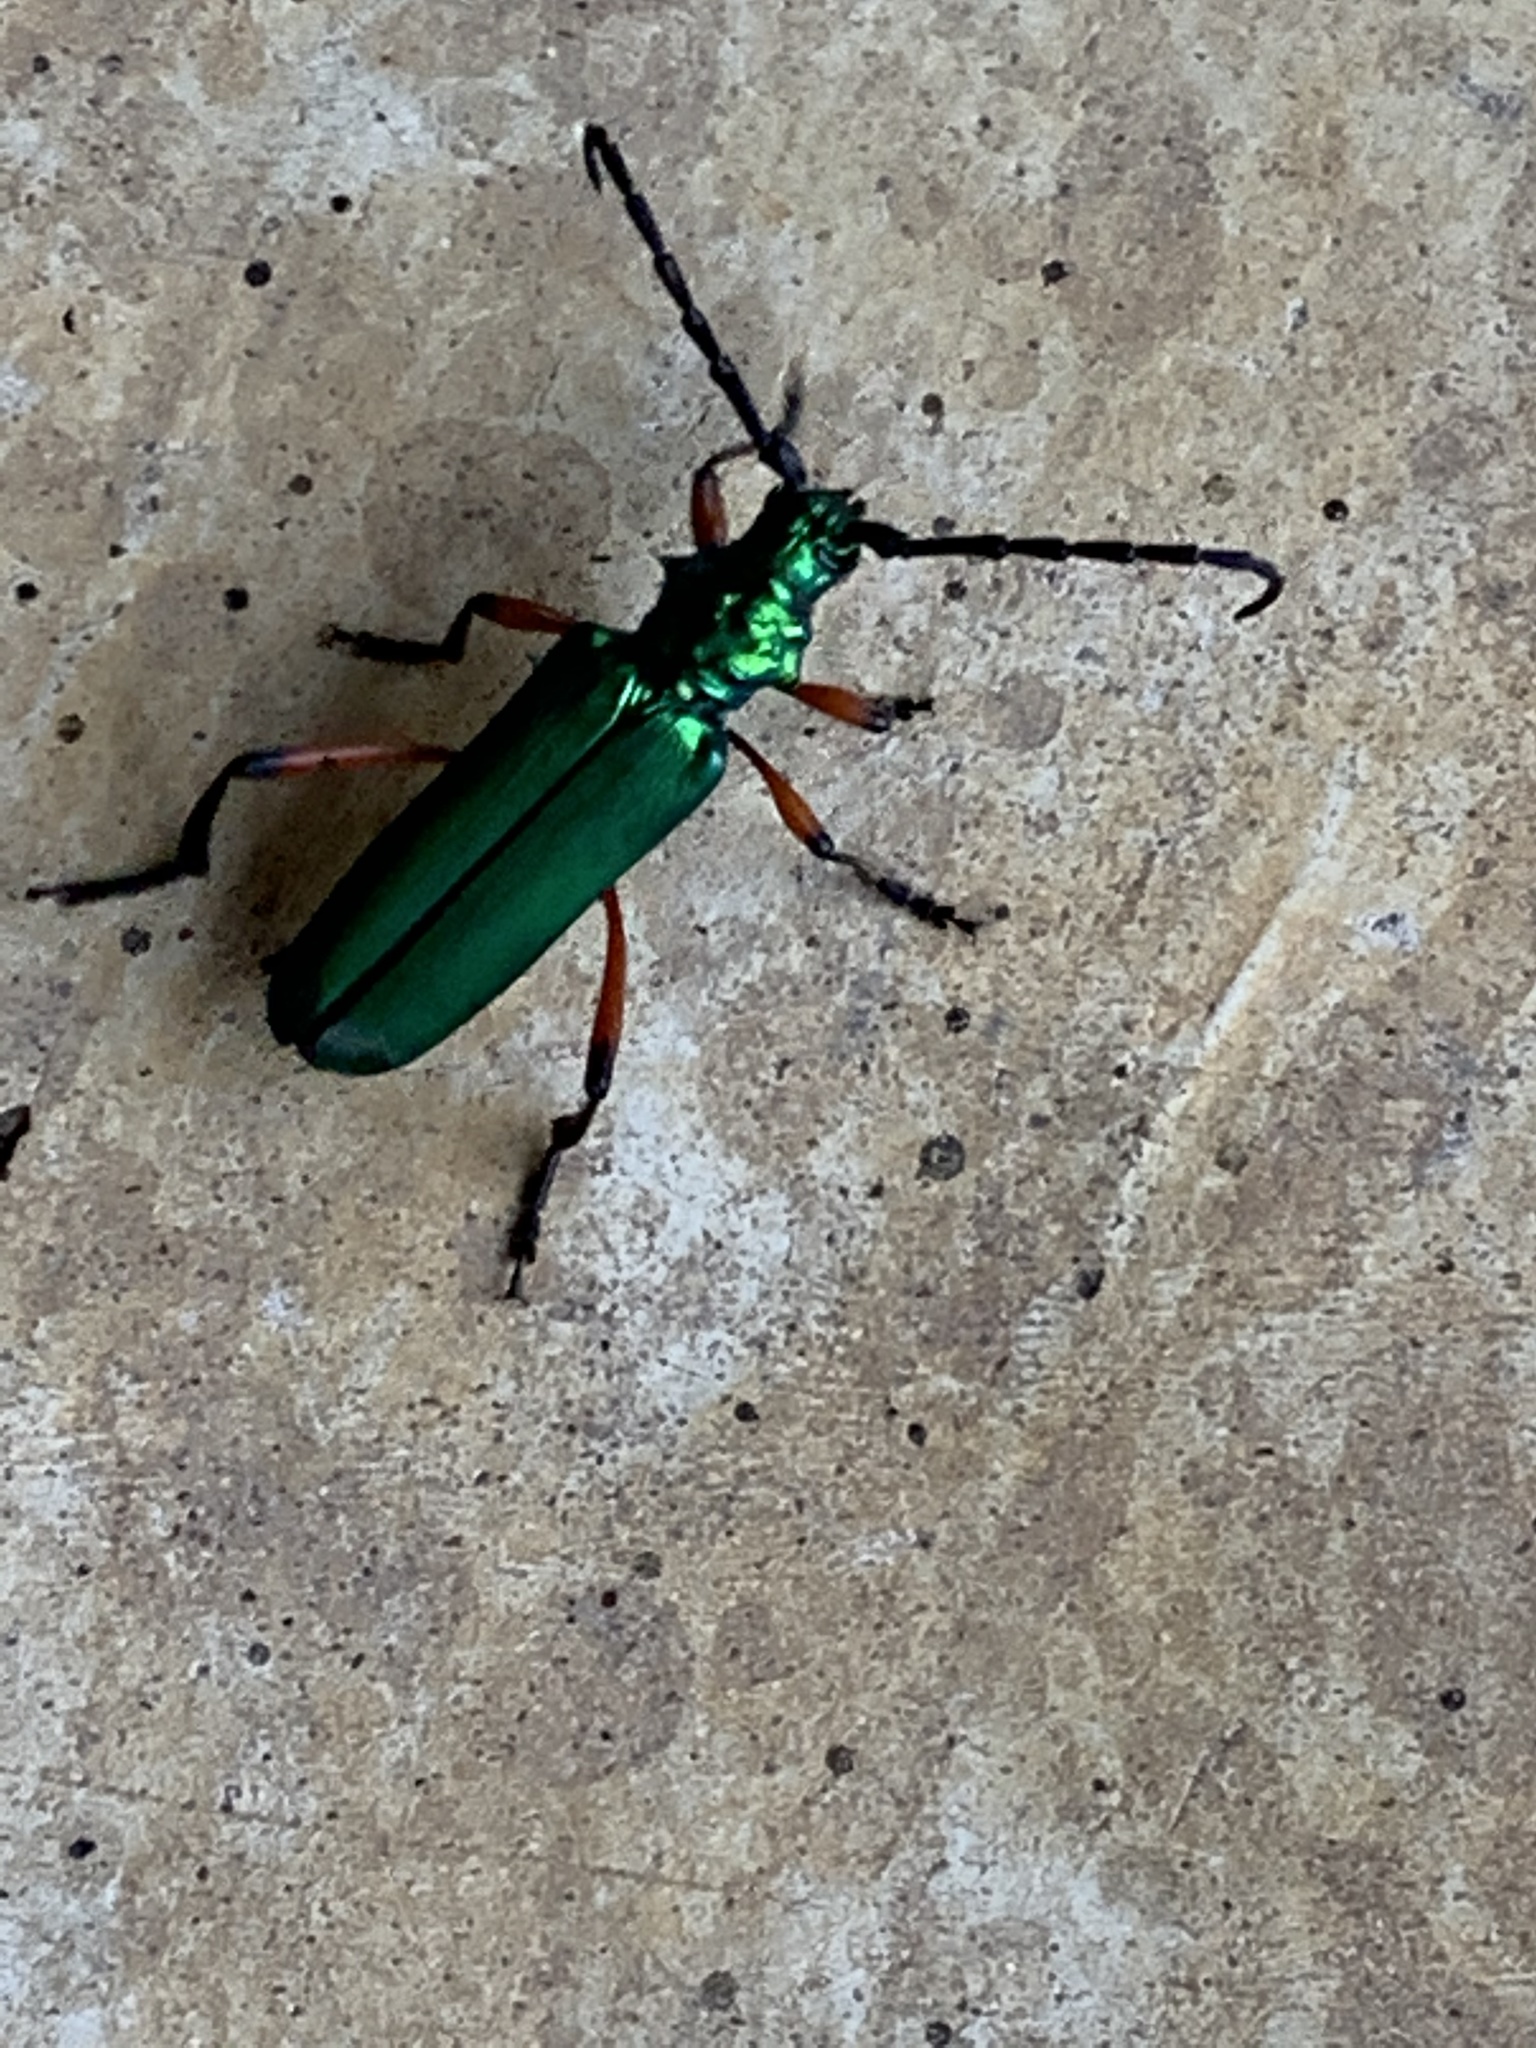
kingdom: Animalia
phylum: Arthropoda
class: Insecta
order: Coleoptera
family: Cerambycidae
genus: Plinthocoelium
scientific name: Plinthocoelium suaveolens
